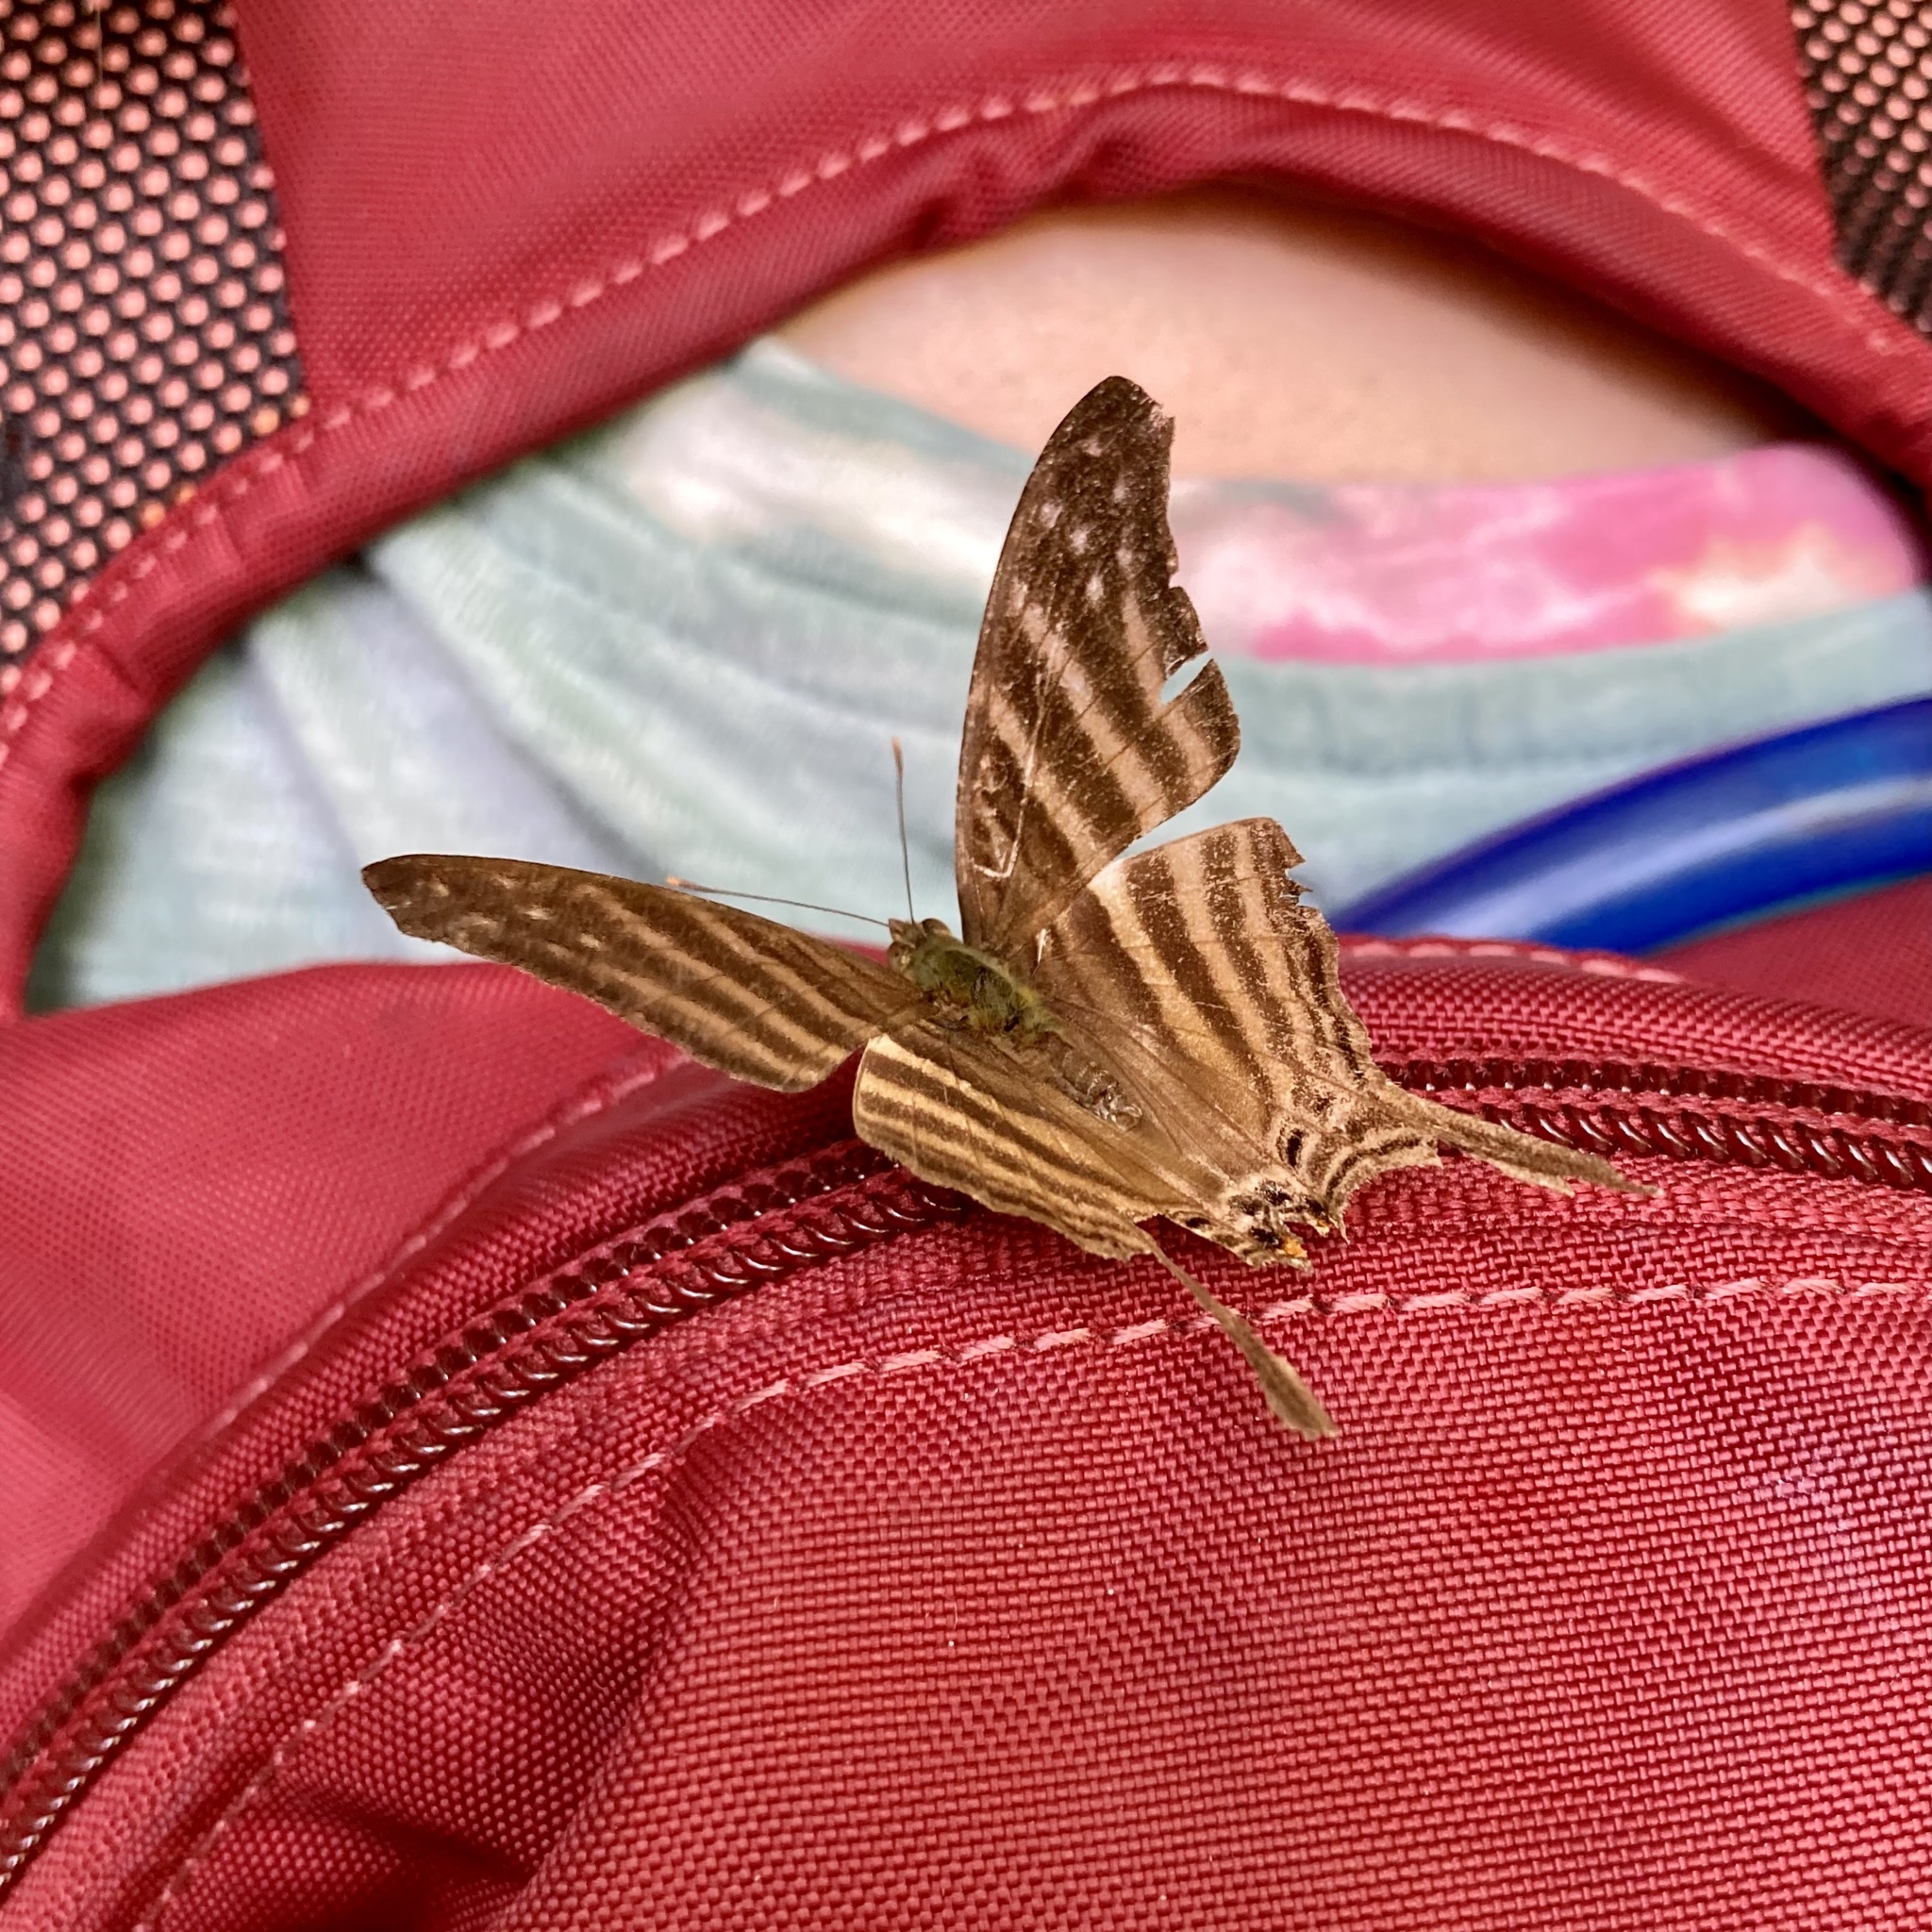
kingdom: Animalia
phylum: Arthropoda
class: Insecta
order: Lepidoptera
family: Nymphalidae
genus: Marpesia
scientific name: Marpesia chiron
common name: Many-banded daggerwing
